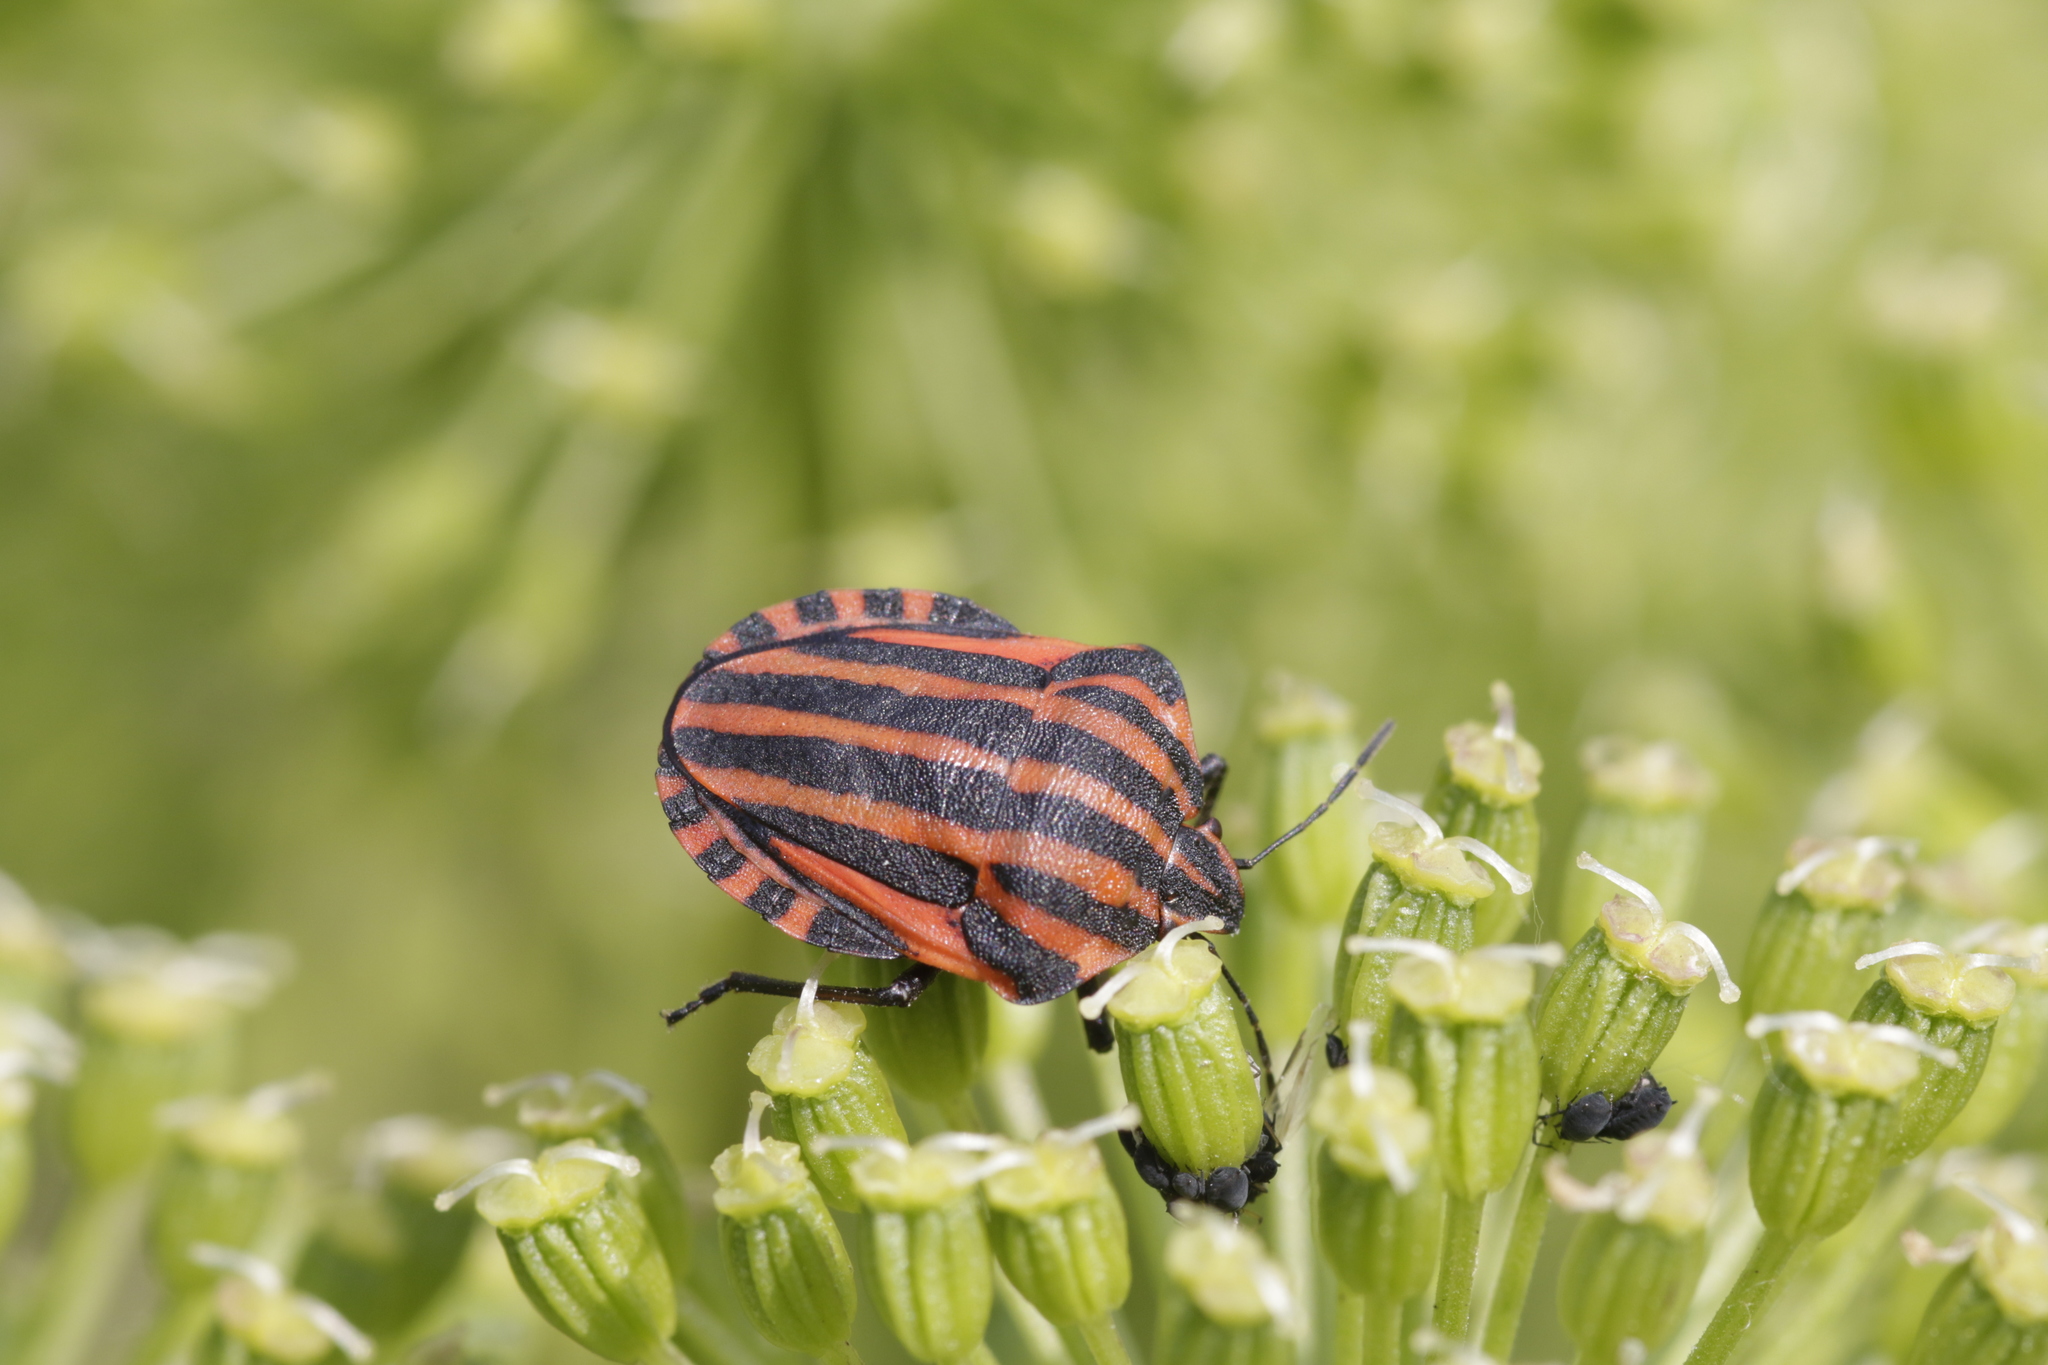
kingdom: Animalia
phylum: Arthropoda
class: Insecta
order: Hemiptera
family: Pentatomidae
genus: Graphosoma
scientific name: Graphosoma italicum
